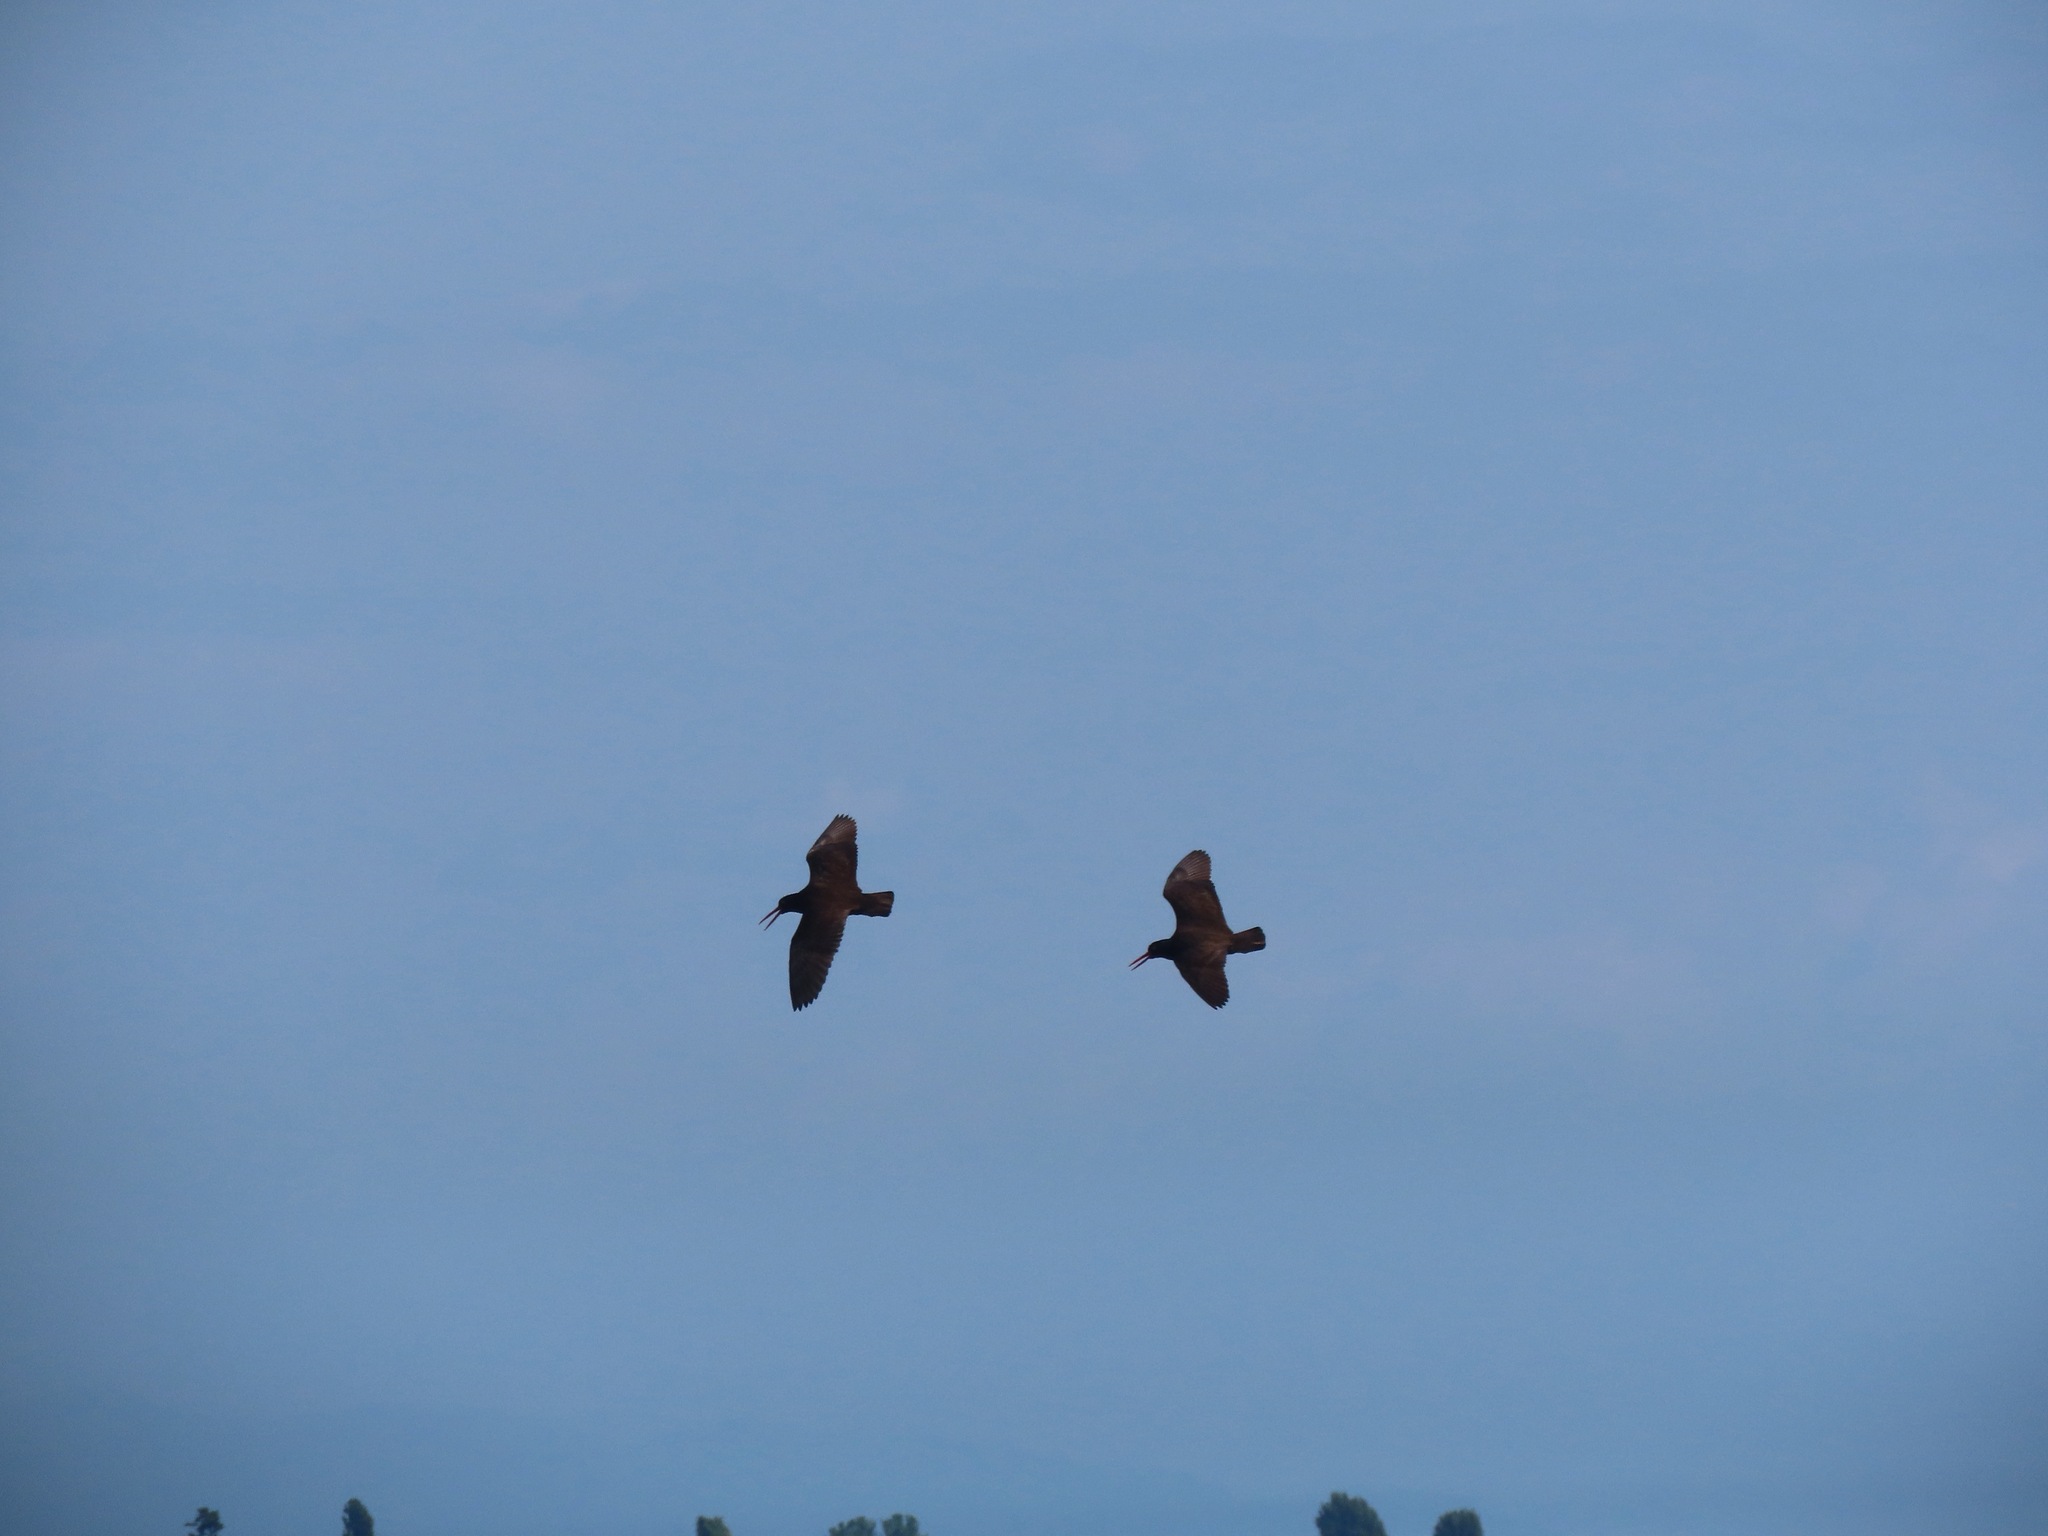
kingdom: Animalia
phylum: Chordata
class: Aves
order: Charadriiformes
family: Haematopodidae
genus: Haematopus
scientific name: Haematopus bachmani
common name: Black oystercatcher
